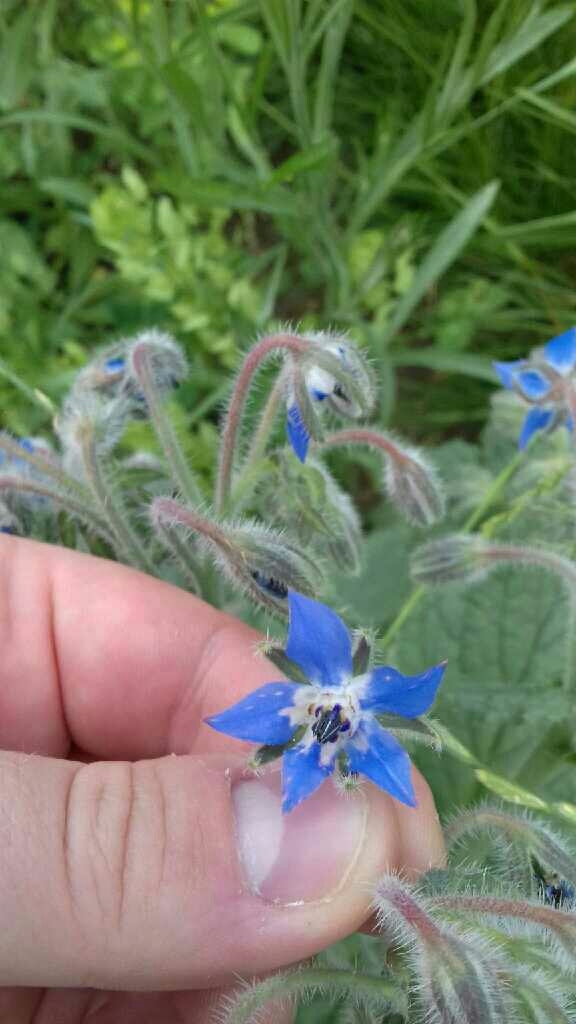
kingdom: Plantae
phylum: Tracheophyta
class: Magnoliopsida
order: Boraginales
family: Boraginaceae
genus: Borago
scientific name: Borago officinalis
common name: Borage
